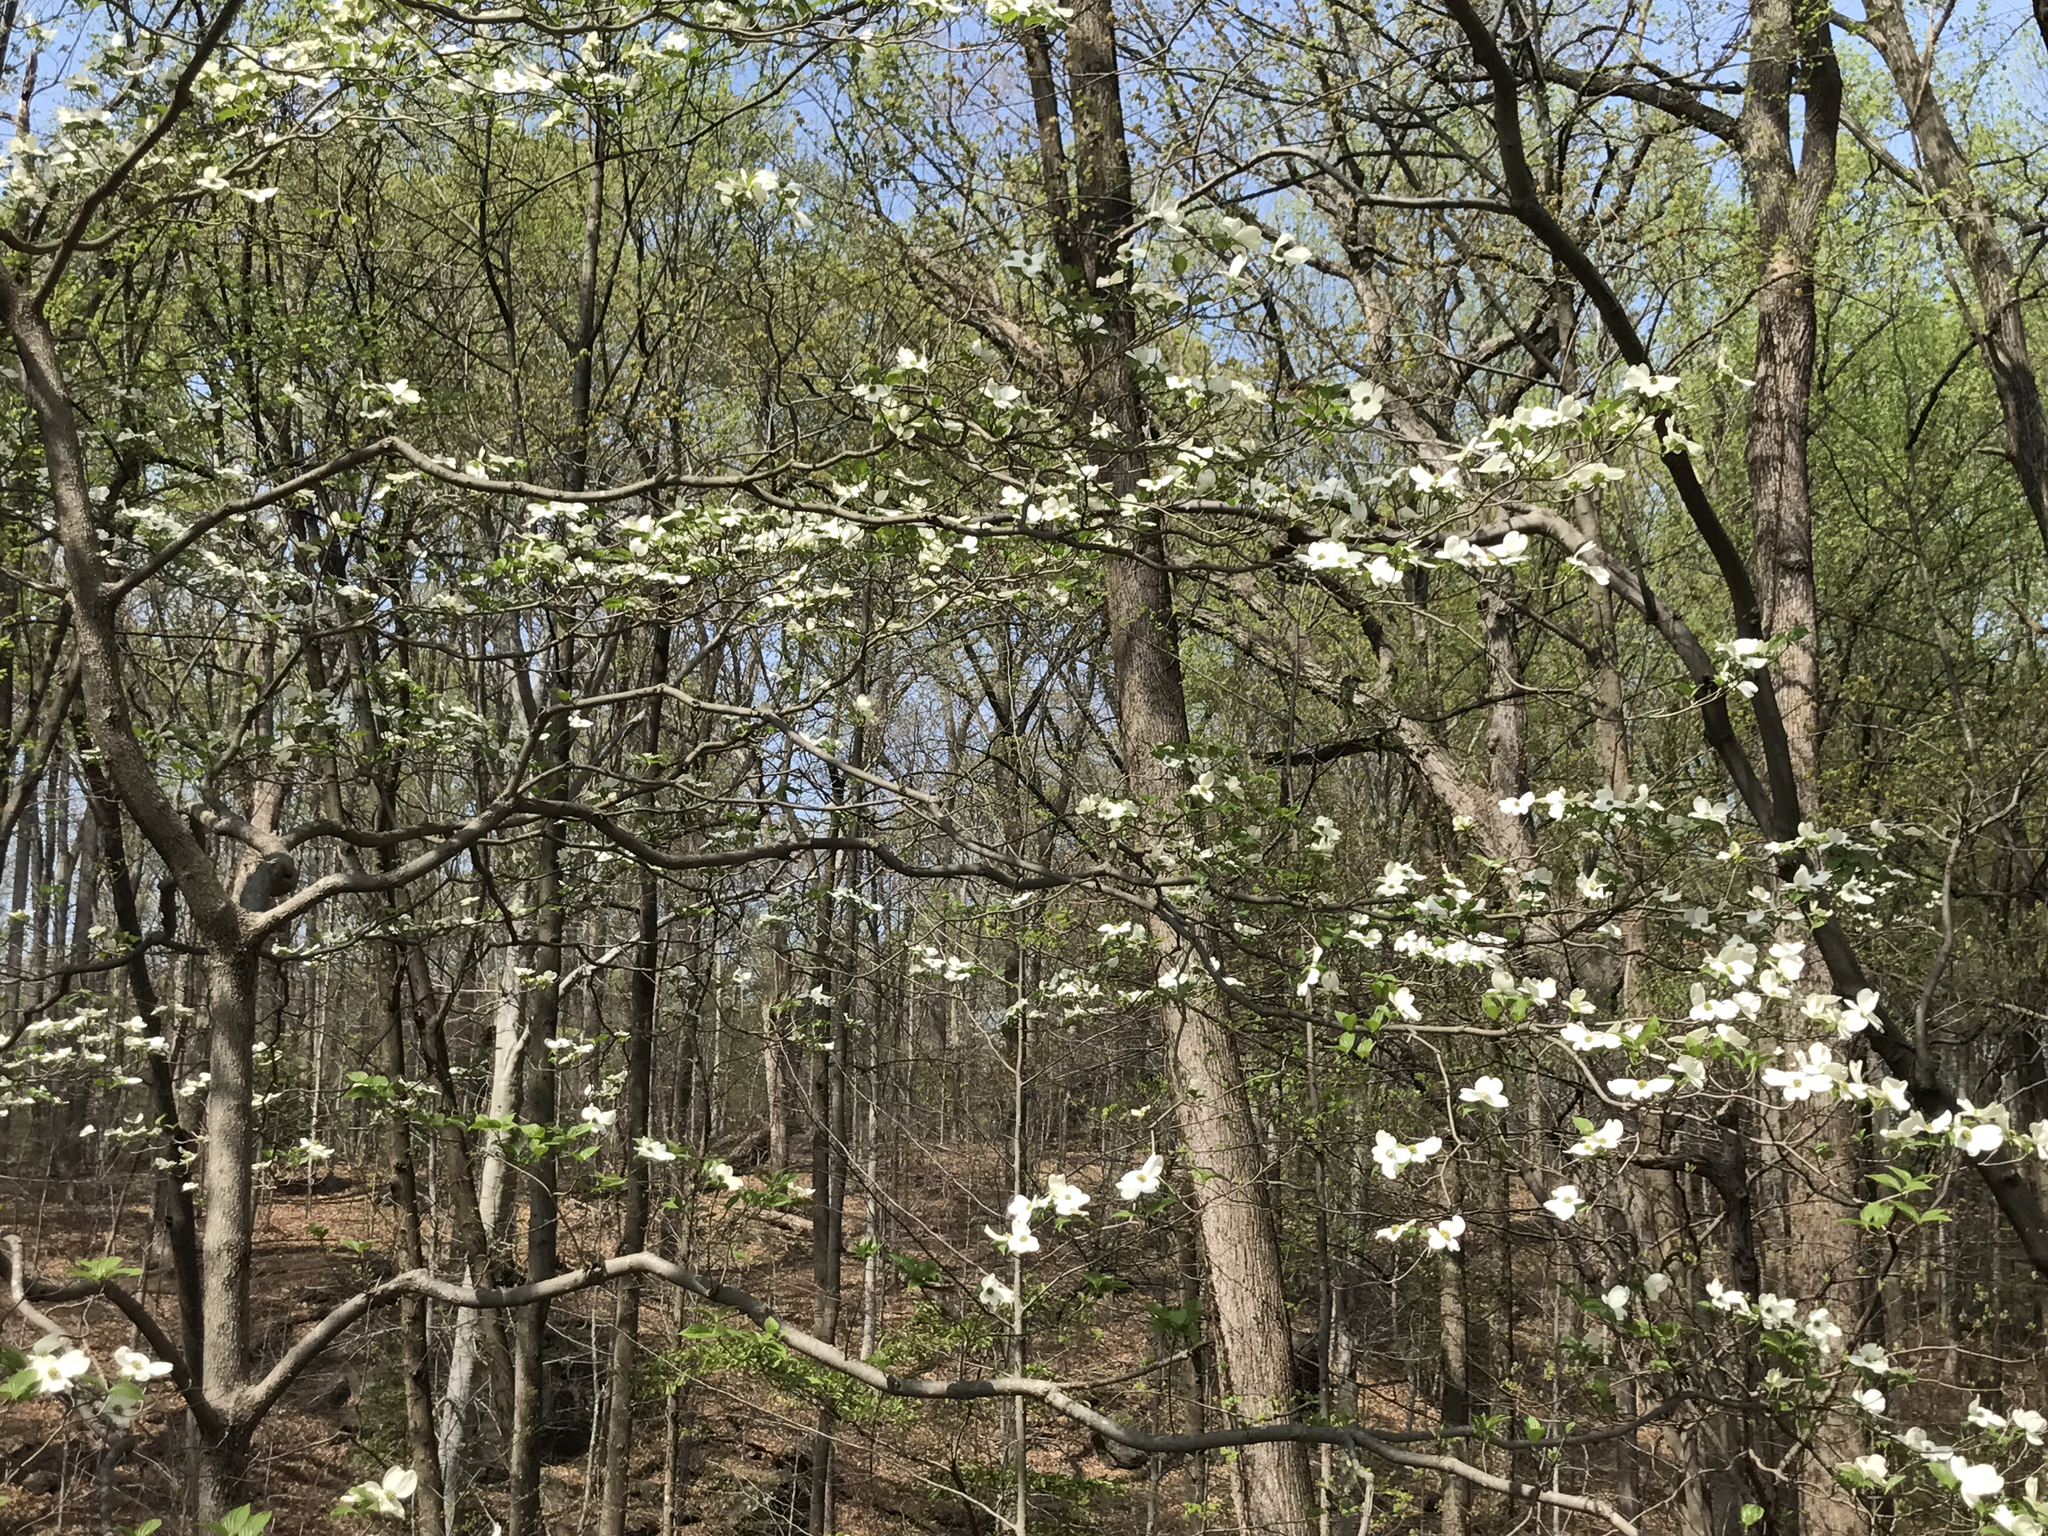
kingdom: Plantae
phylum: Tracheophyta
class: Magnoliopsida
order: Cornales
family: Cornaceae
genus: Cornus
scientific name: Cornus florida
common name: Flowering dogwood
